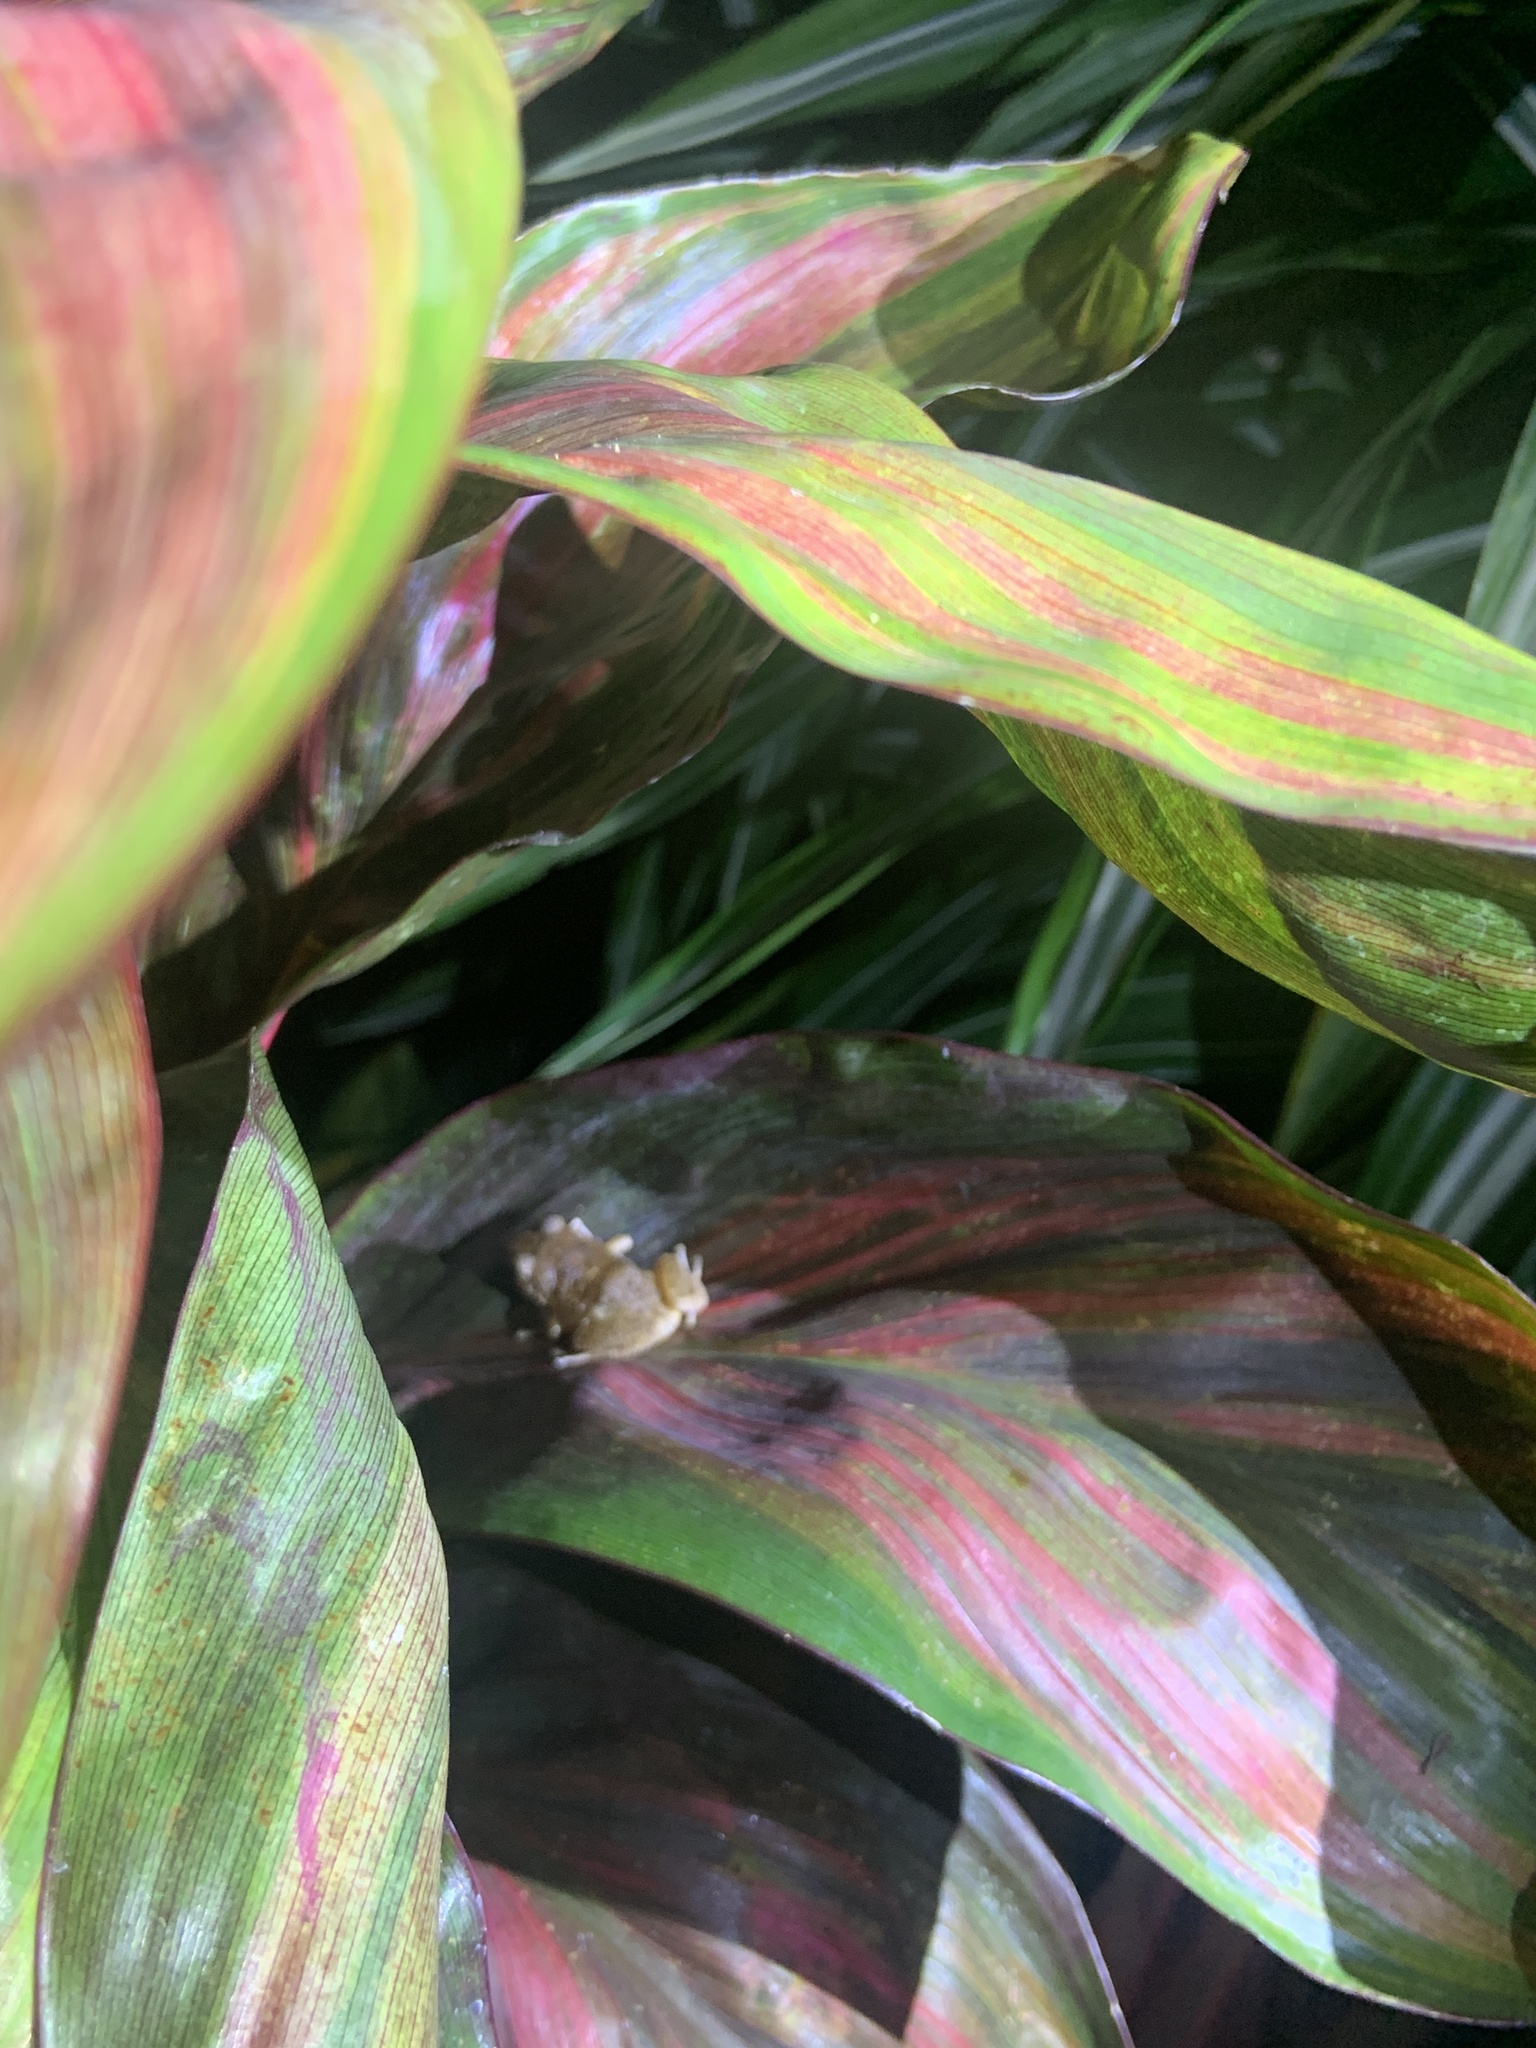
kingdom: Animalia
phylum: Chordata
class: Amphibia
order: Anura
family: Eleutherodactylidae
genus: Eleutherodactylus
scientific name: Eleutherodactylus coqui
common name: Coqui frog
